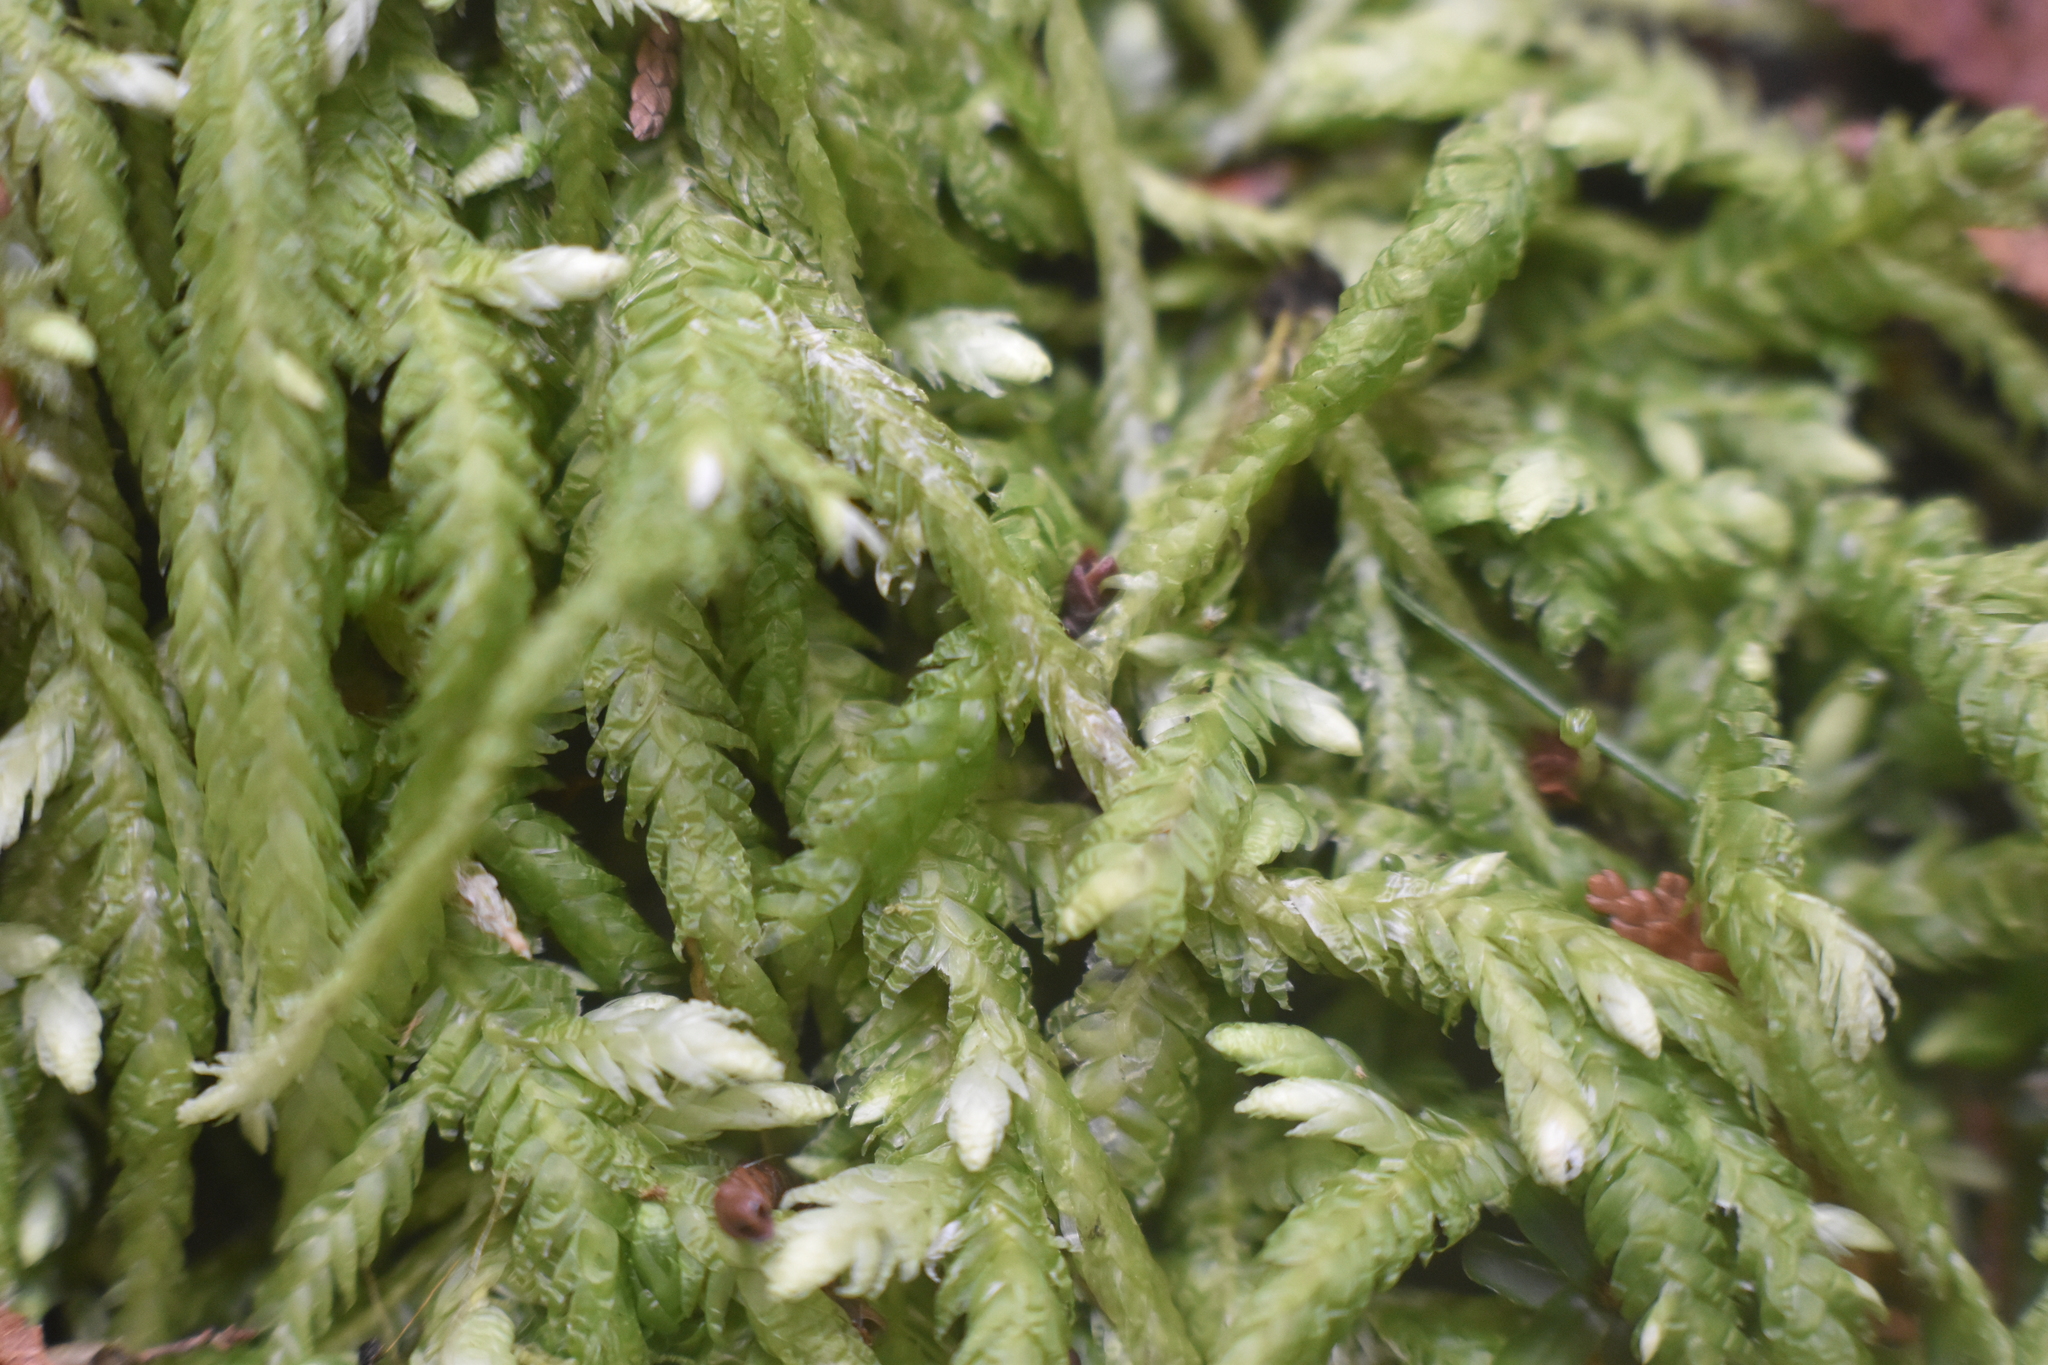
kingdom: Plantae
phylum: Bryophyta
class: Bryopsida
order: Hypnales
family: Plagiotheciaceae
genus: Plagiothecium
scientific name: Plagiothecium undulatum
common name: Waved silk-moss
